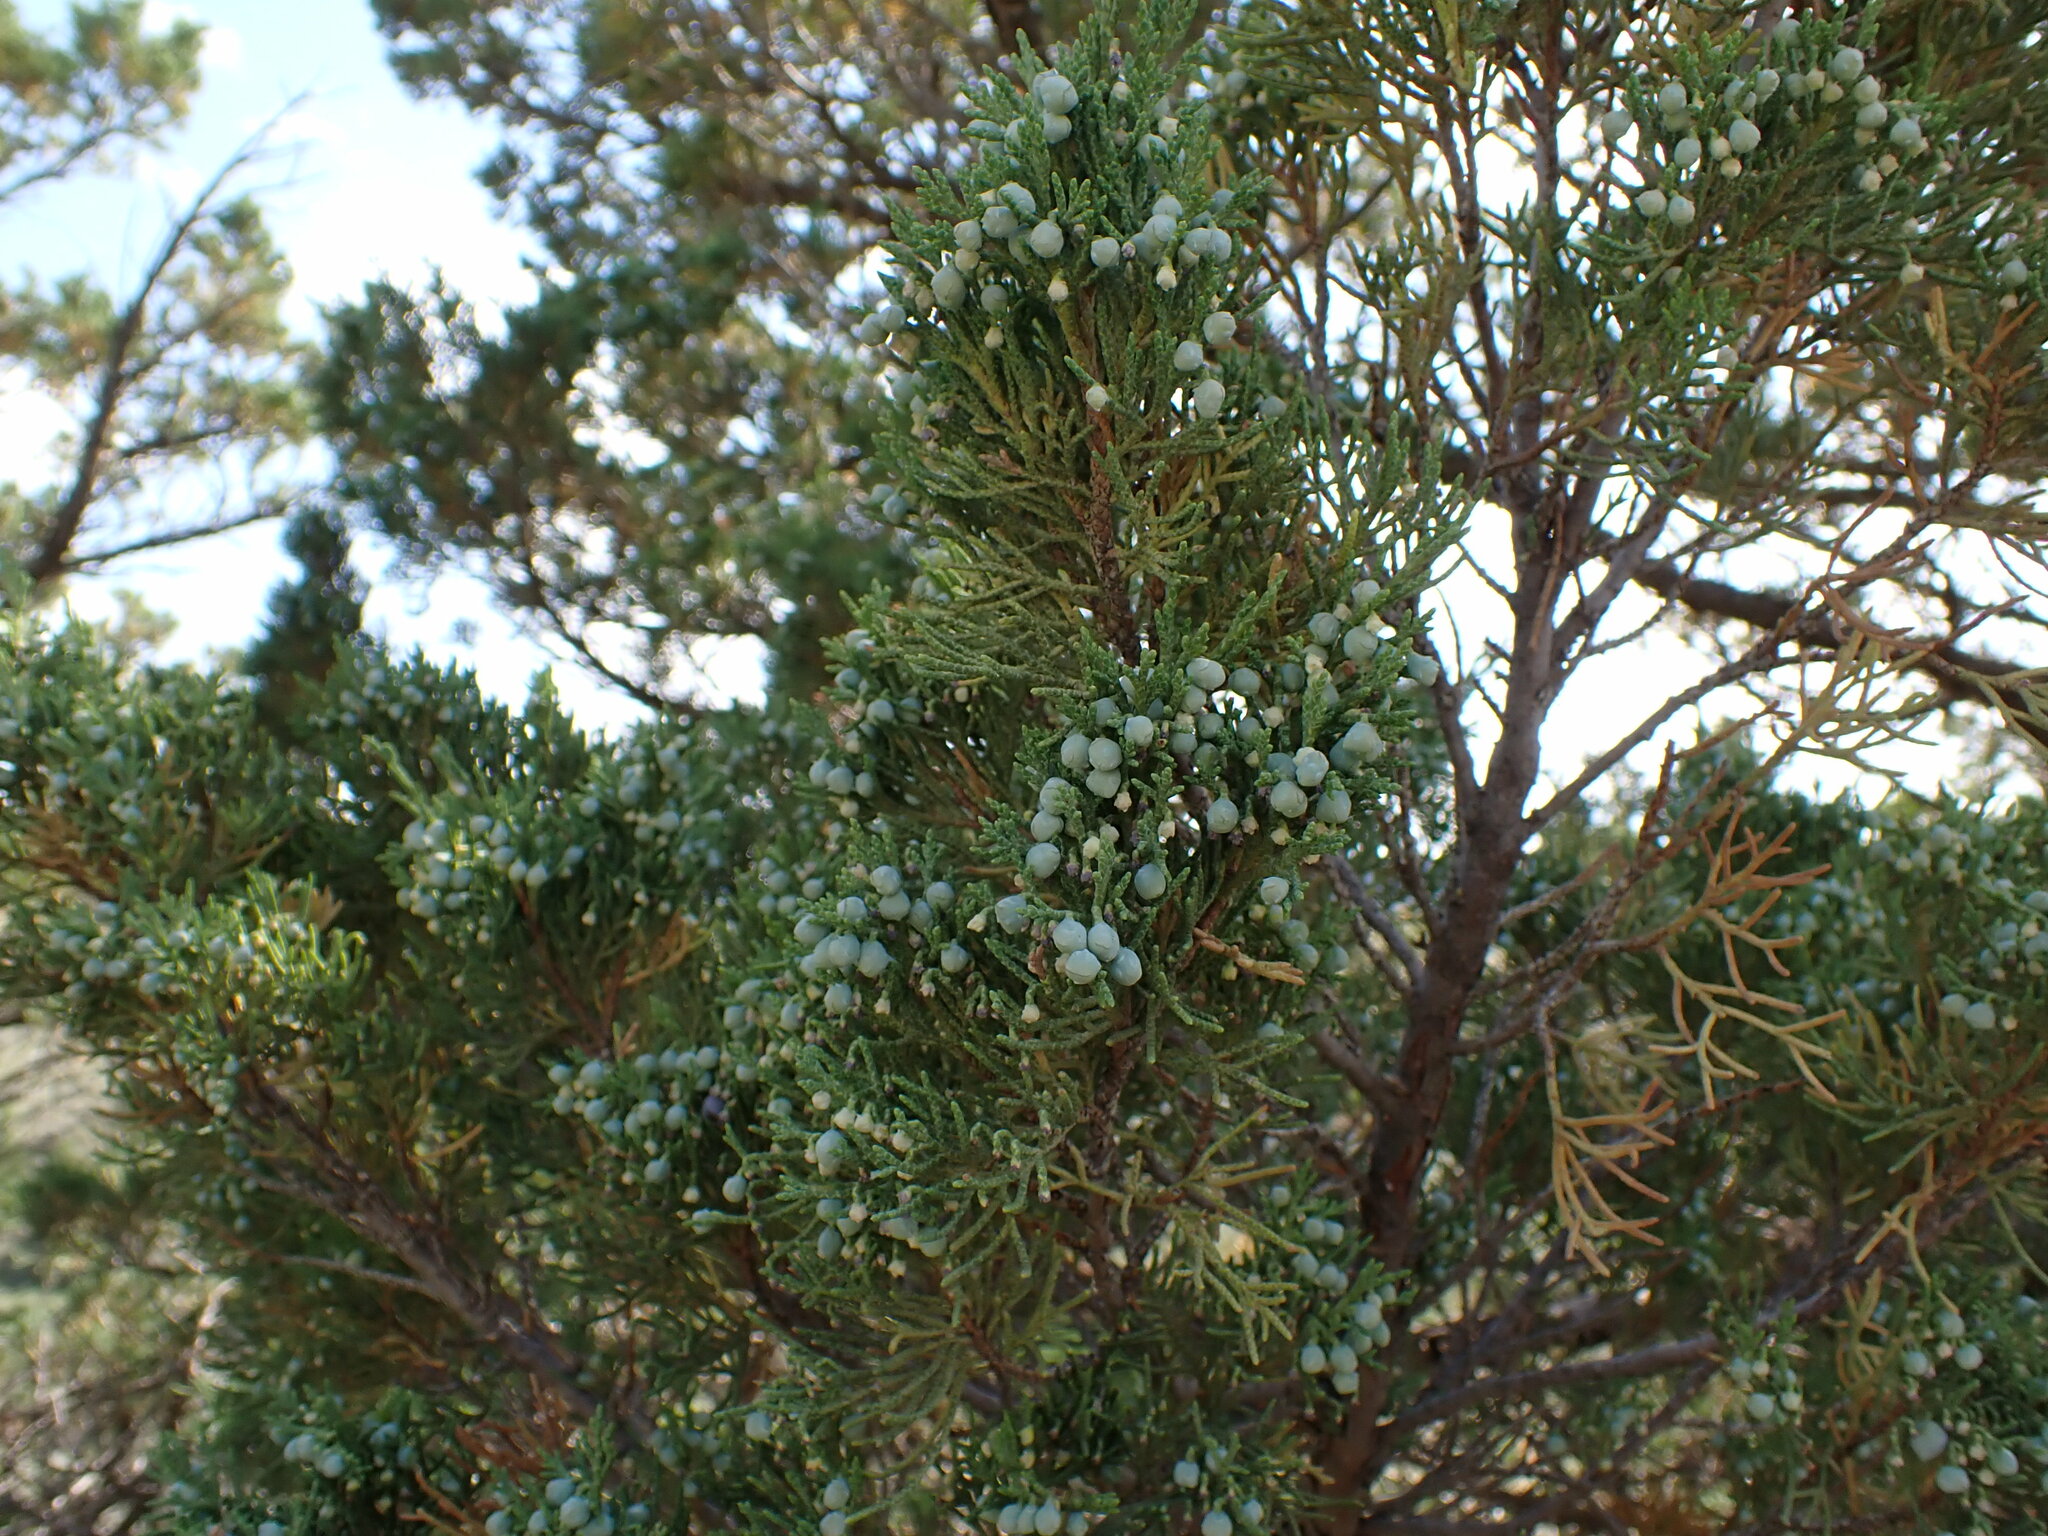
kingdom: Plantae
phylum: Tracheophyta
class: Pinopsida
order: Pinales
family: Cupressaceae
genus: Juniperus
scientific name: Juniperus scopulorum
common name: Rocky mountain juniper
